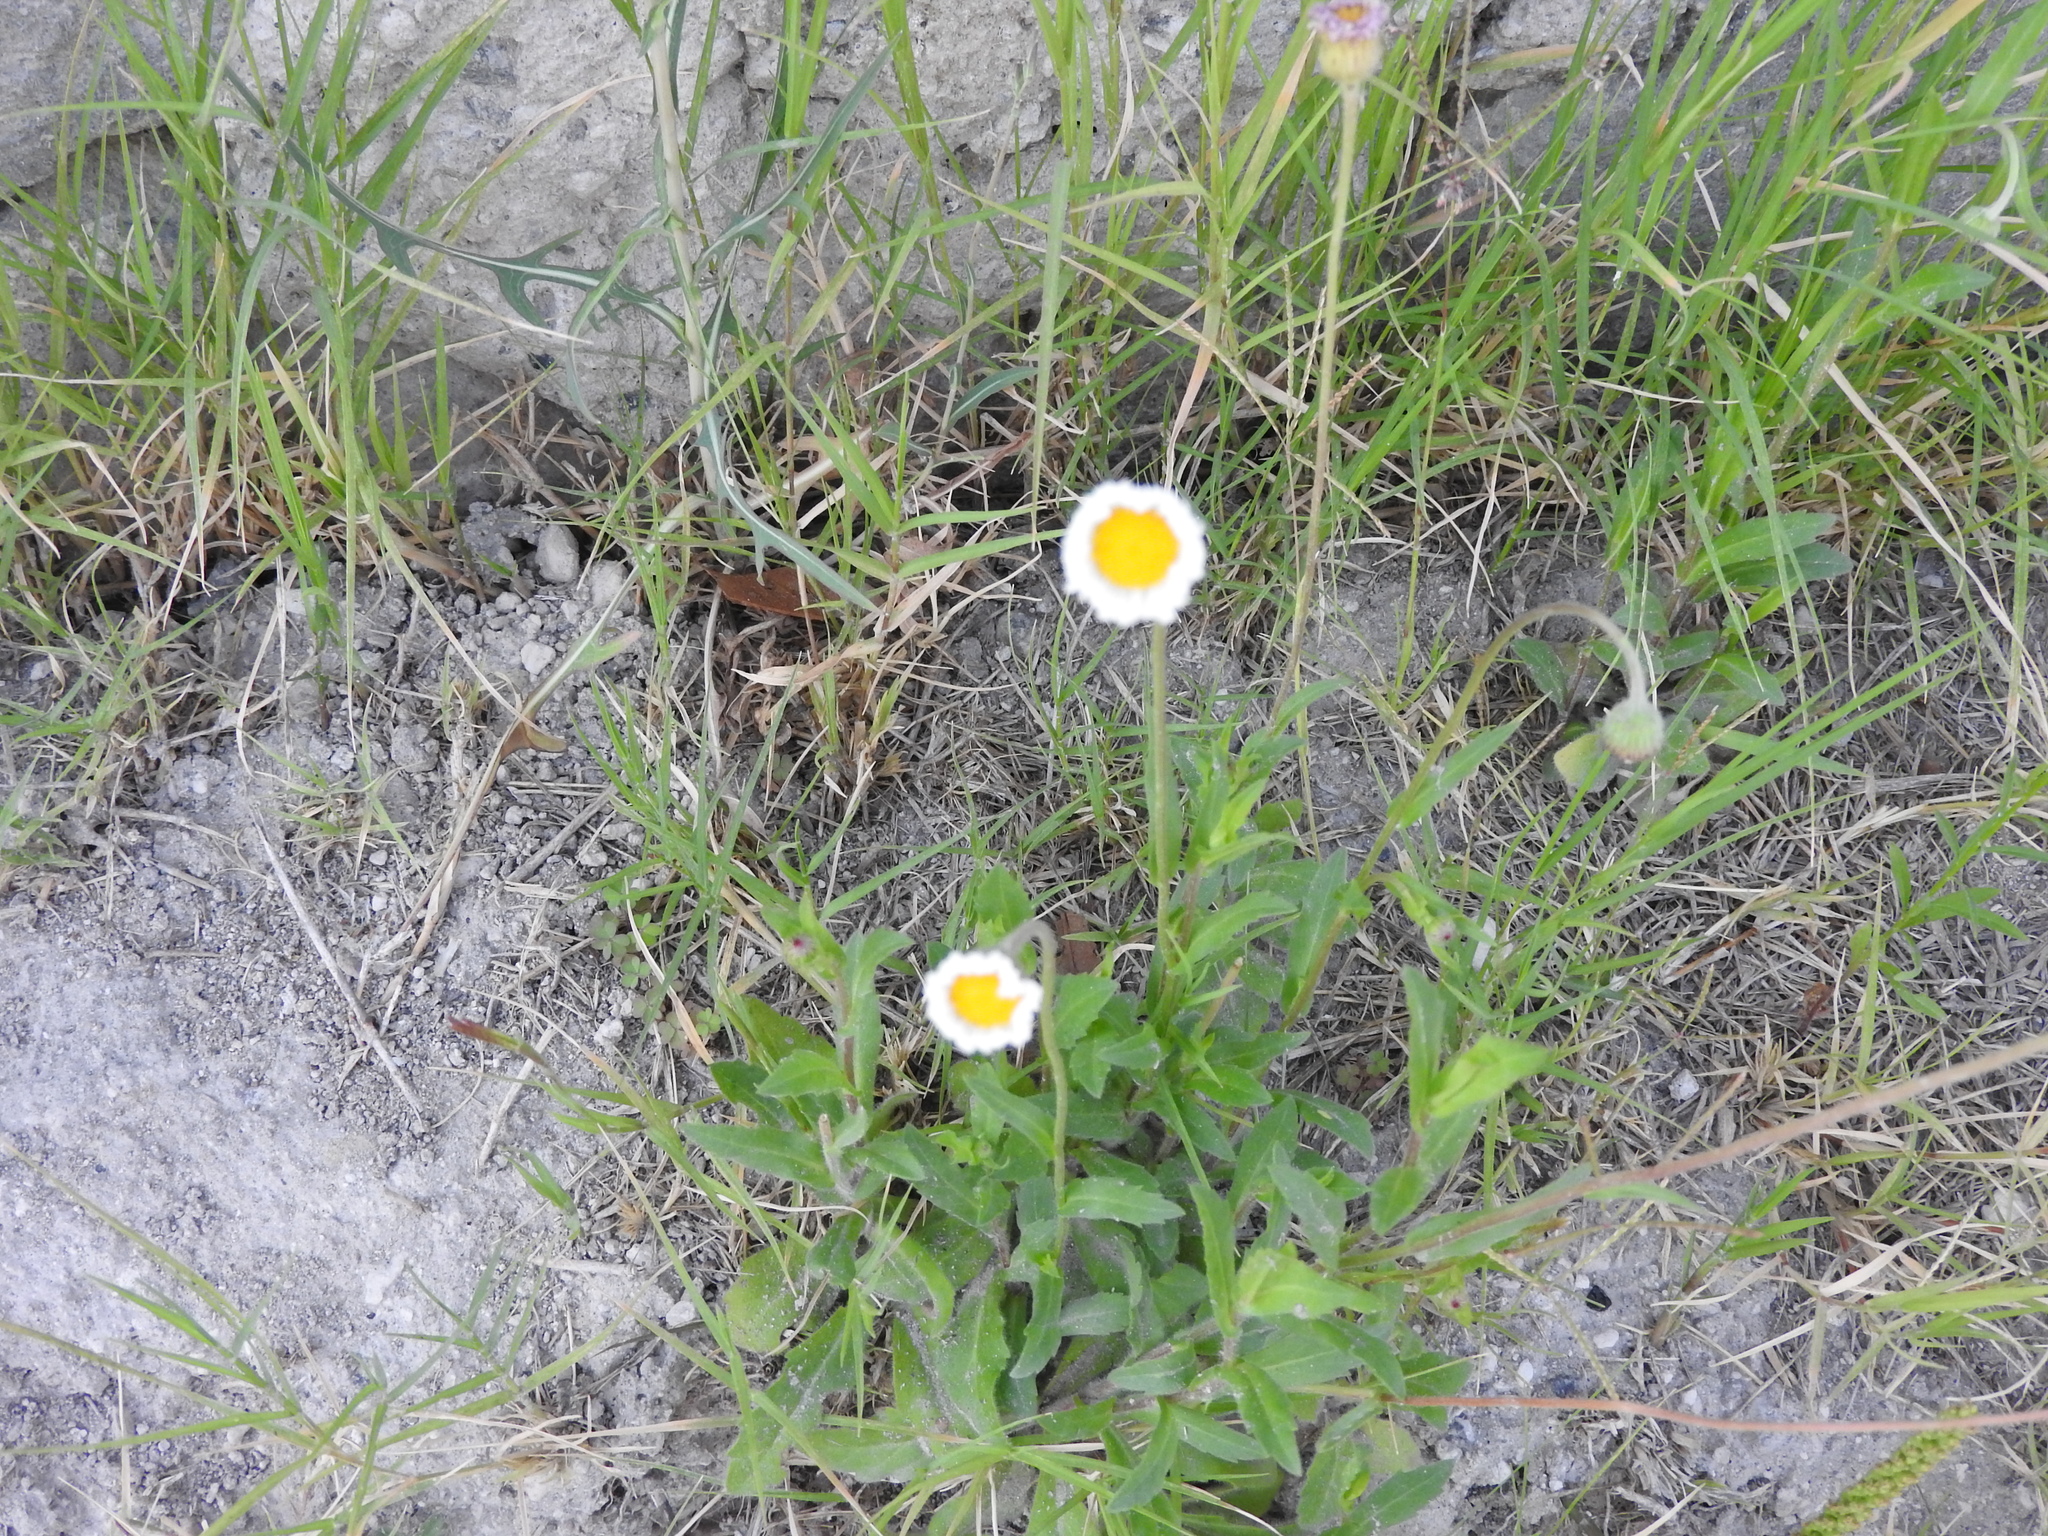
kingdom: Plantae
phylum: Tracheophyta
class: Magnoliopsida
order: Asterales
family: Asteraceae
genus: Erigeron
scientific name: Erigeron longipes
